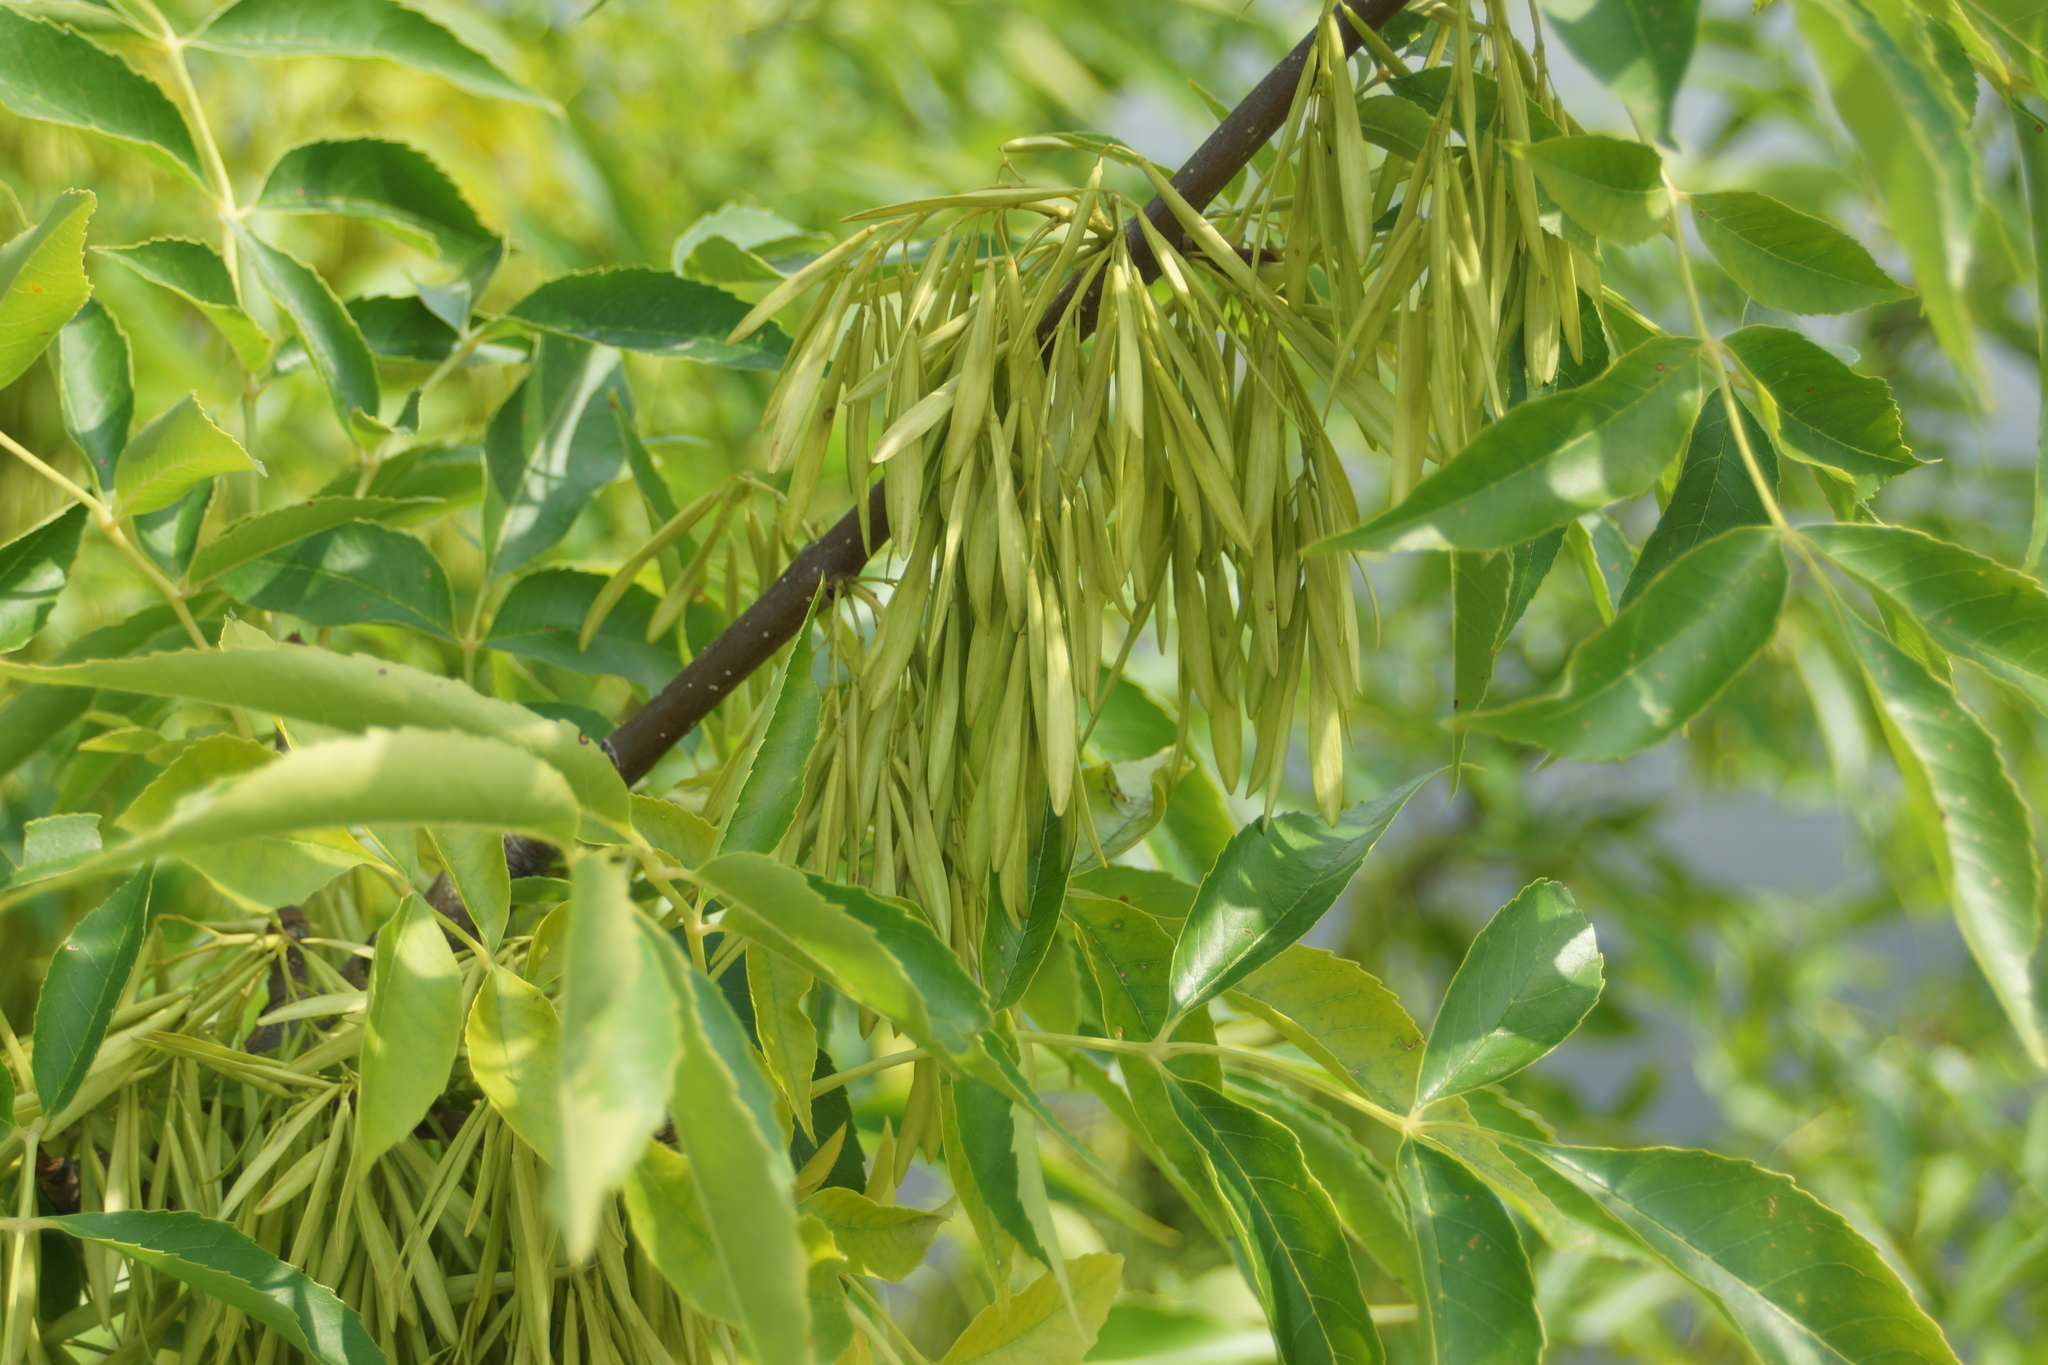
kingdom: Plantae
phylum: Tracheophyta
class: Magnoliopsida
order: Lamiales
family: Oleaceae
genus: Fraxinus
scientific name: Fraxinus pennsylvanica
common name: Green ash
